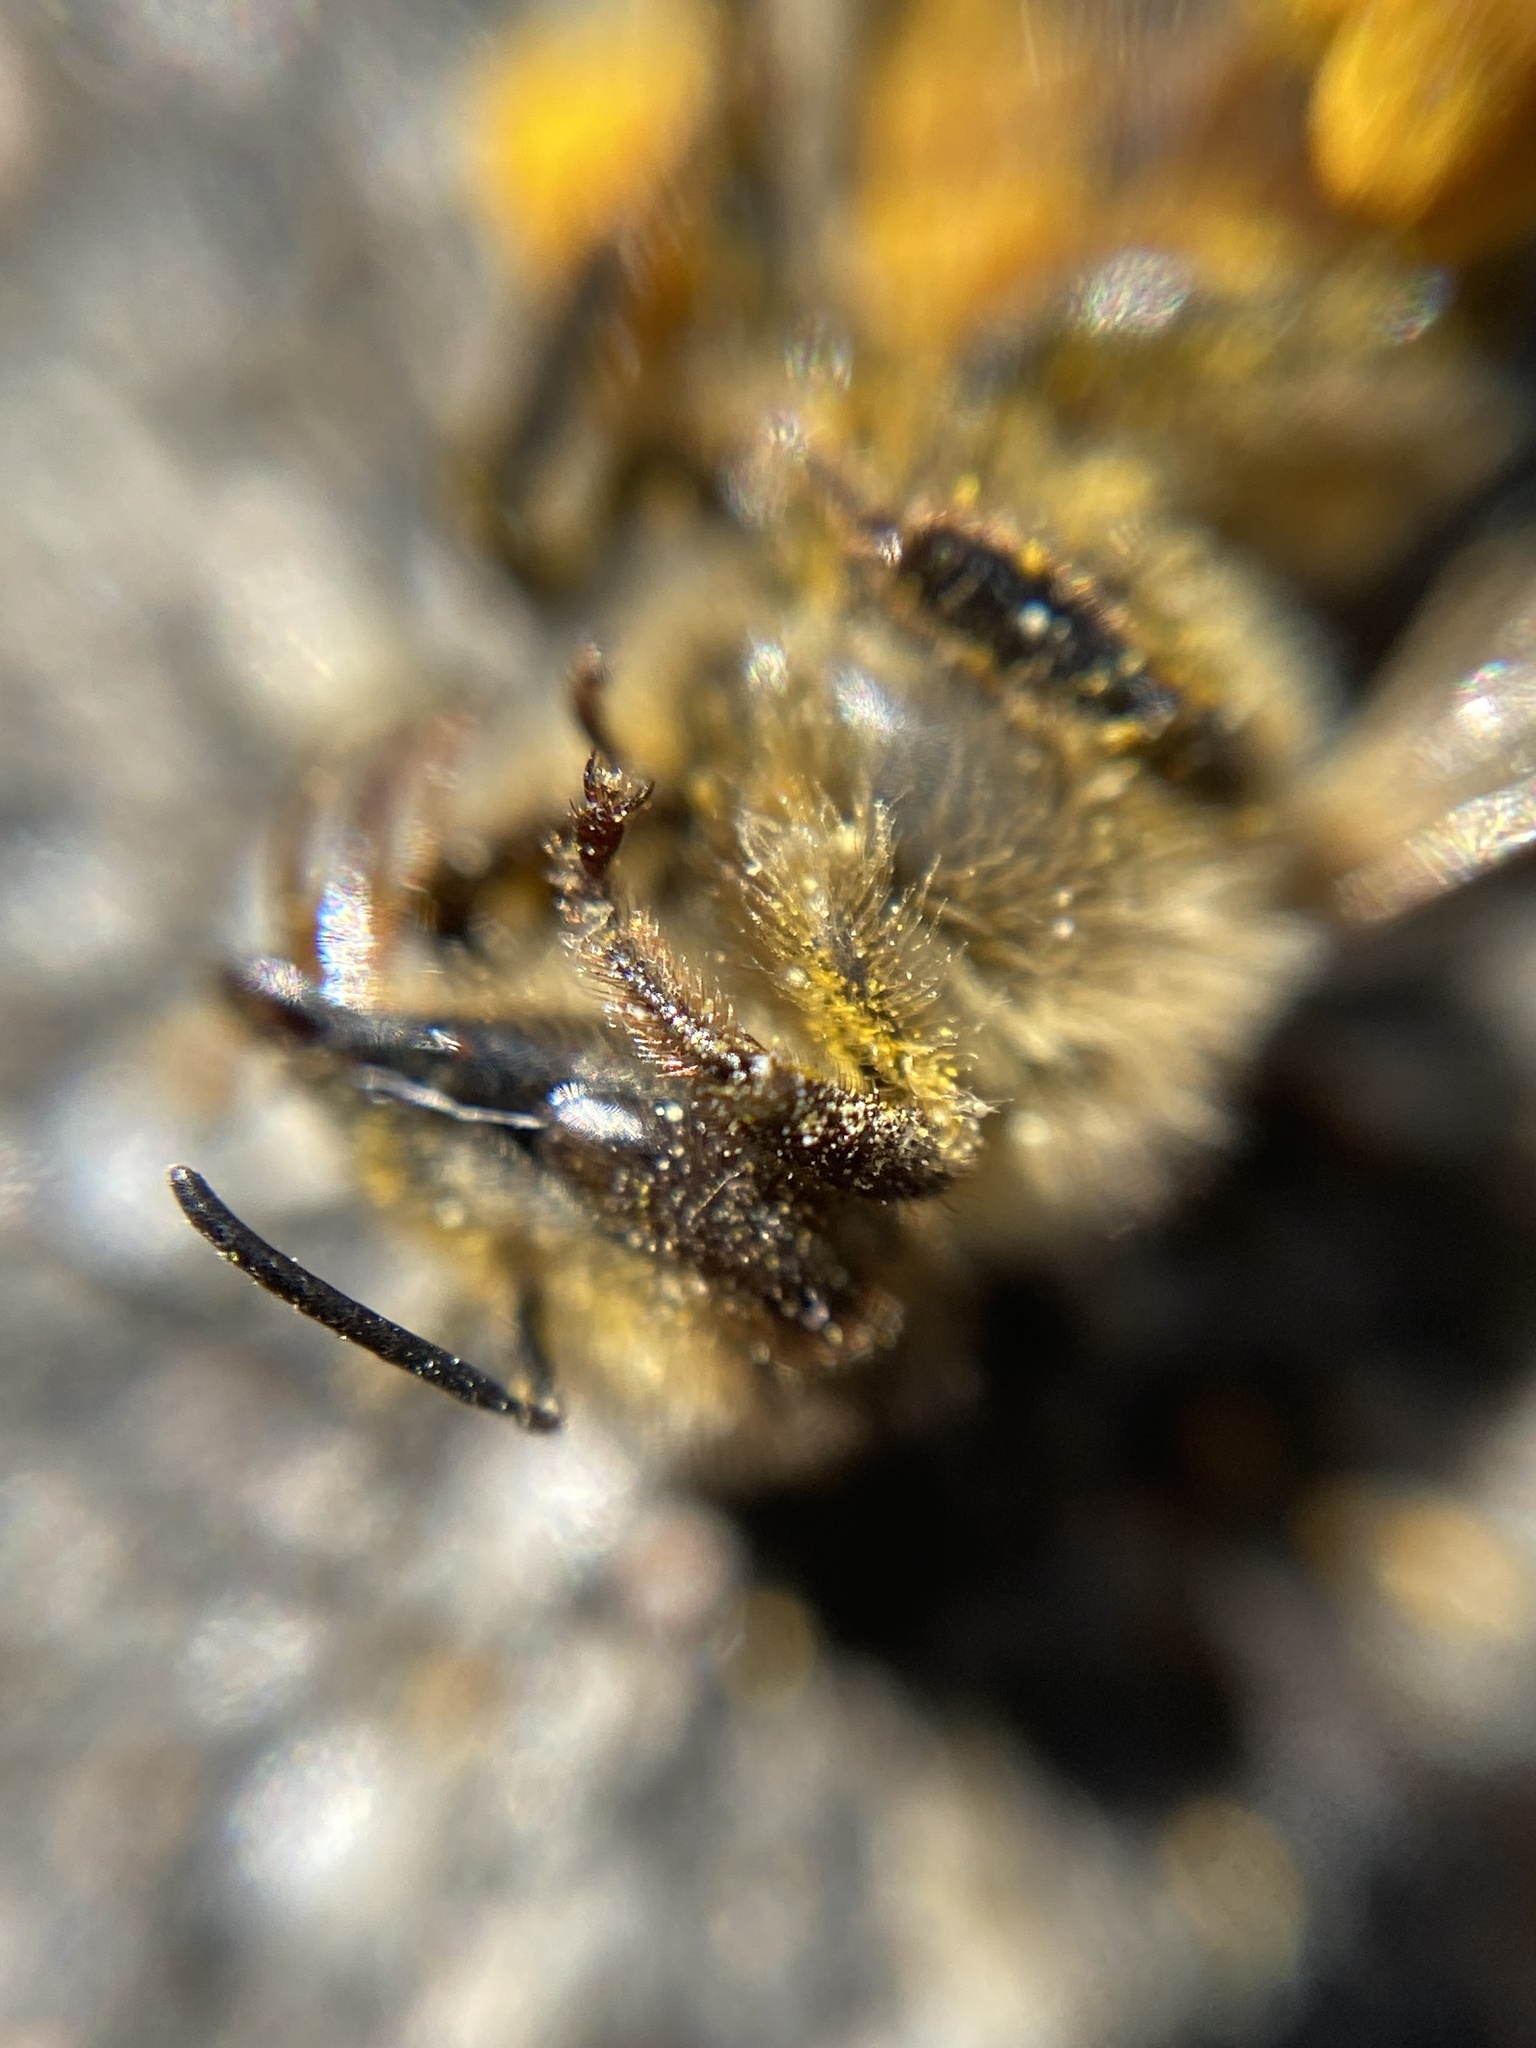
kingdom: Animalia
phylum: Arthropoda
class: Insecta
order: Hymenoptera
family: Apidae
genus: Apis
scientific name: Apis mellifera
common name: Honey bee
